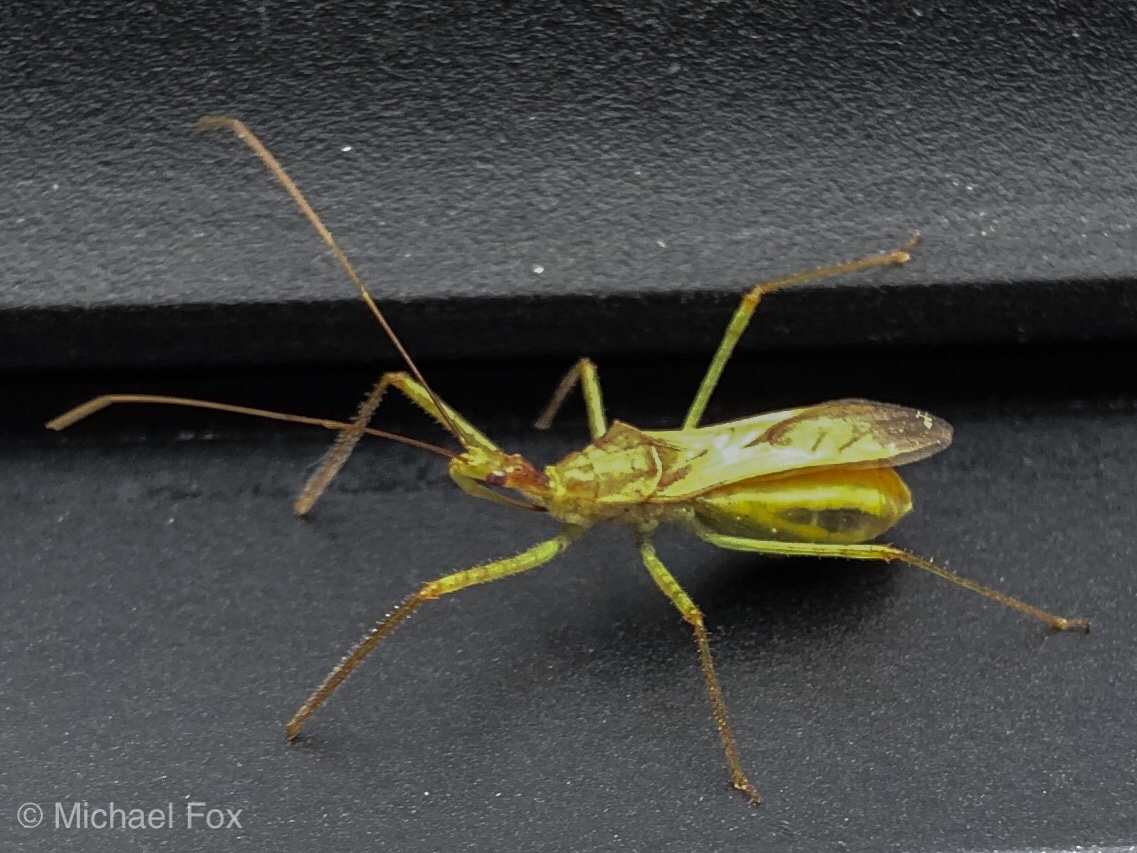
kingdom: Animalia
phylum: Arthropoda
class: Insecta
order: Hemiptera
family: Reduviidae
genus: Zelus
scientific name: Zelus renardii
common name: Assassin bug
